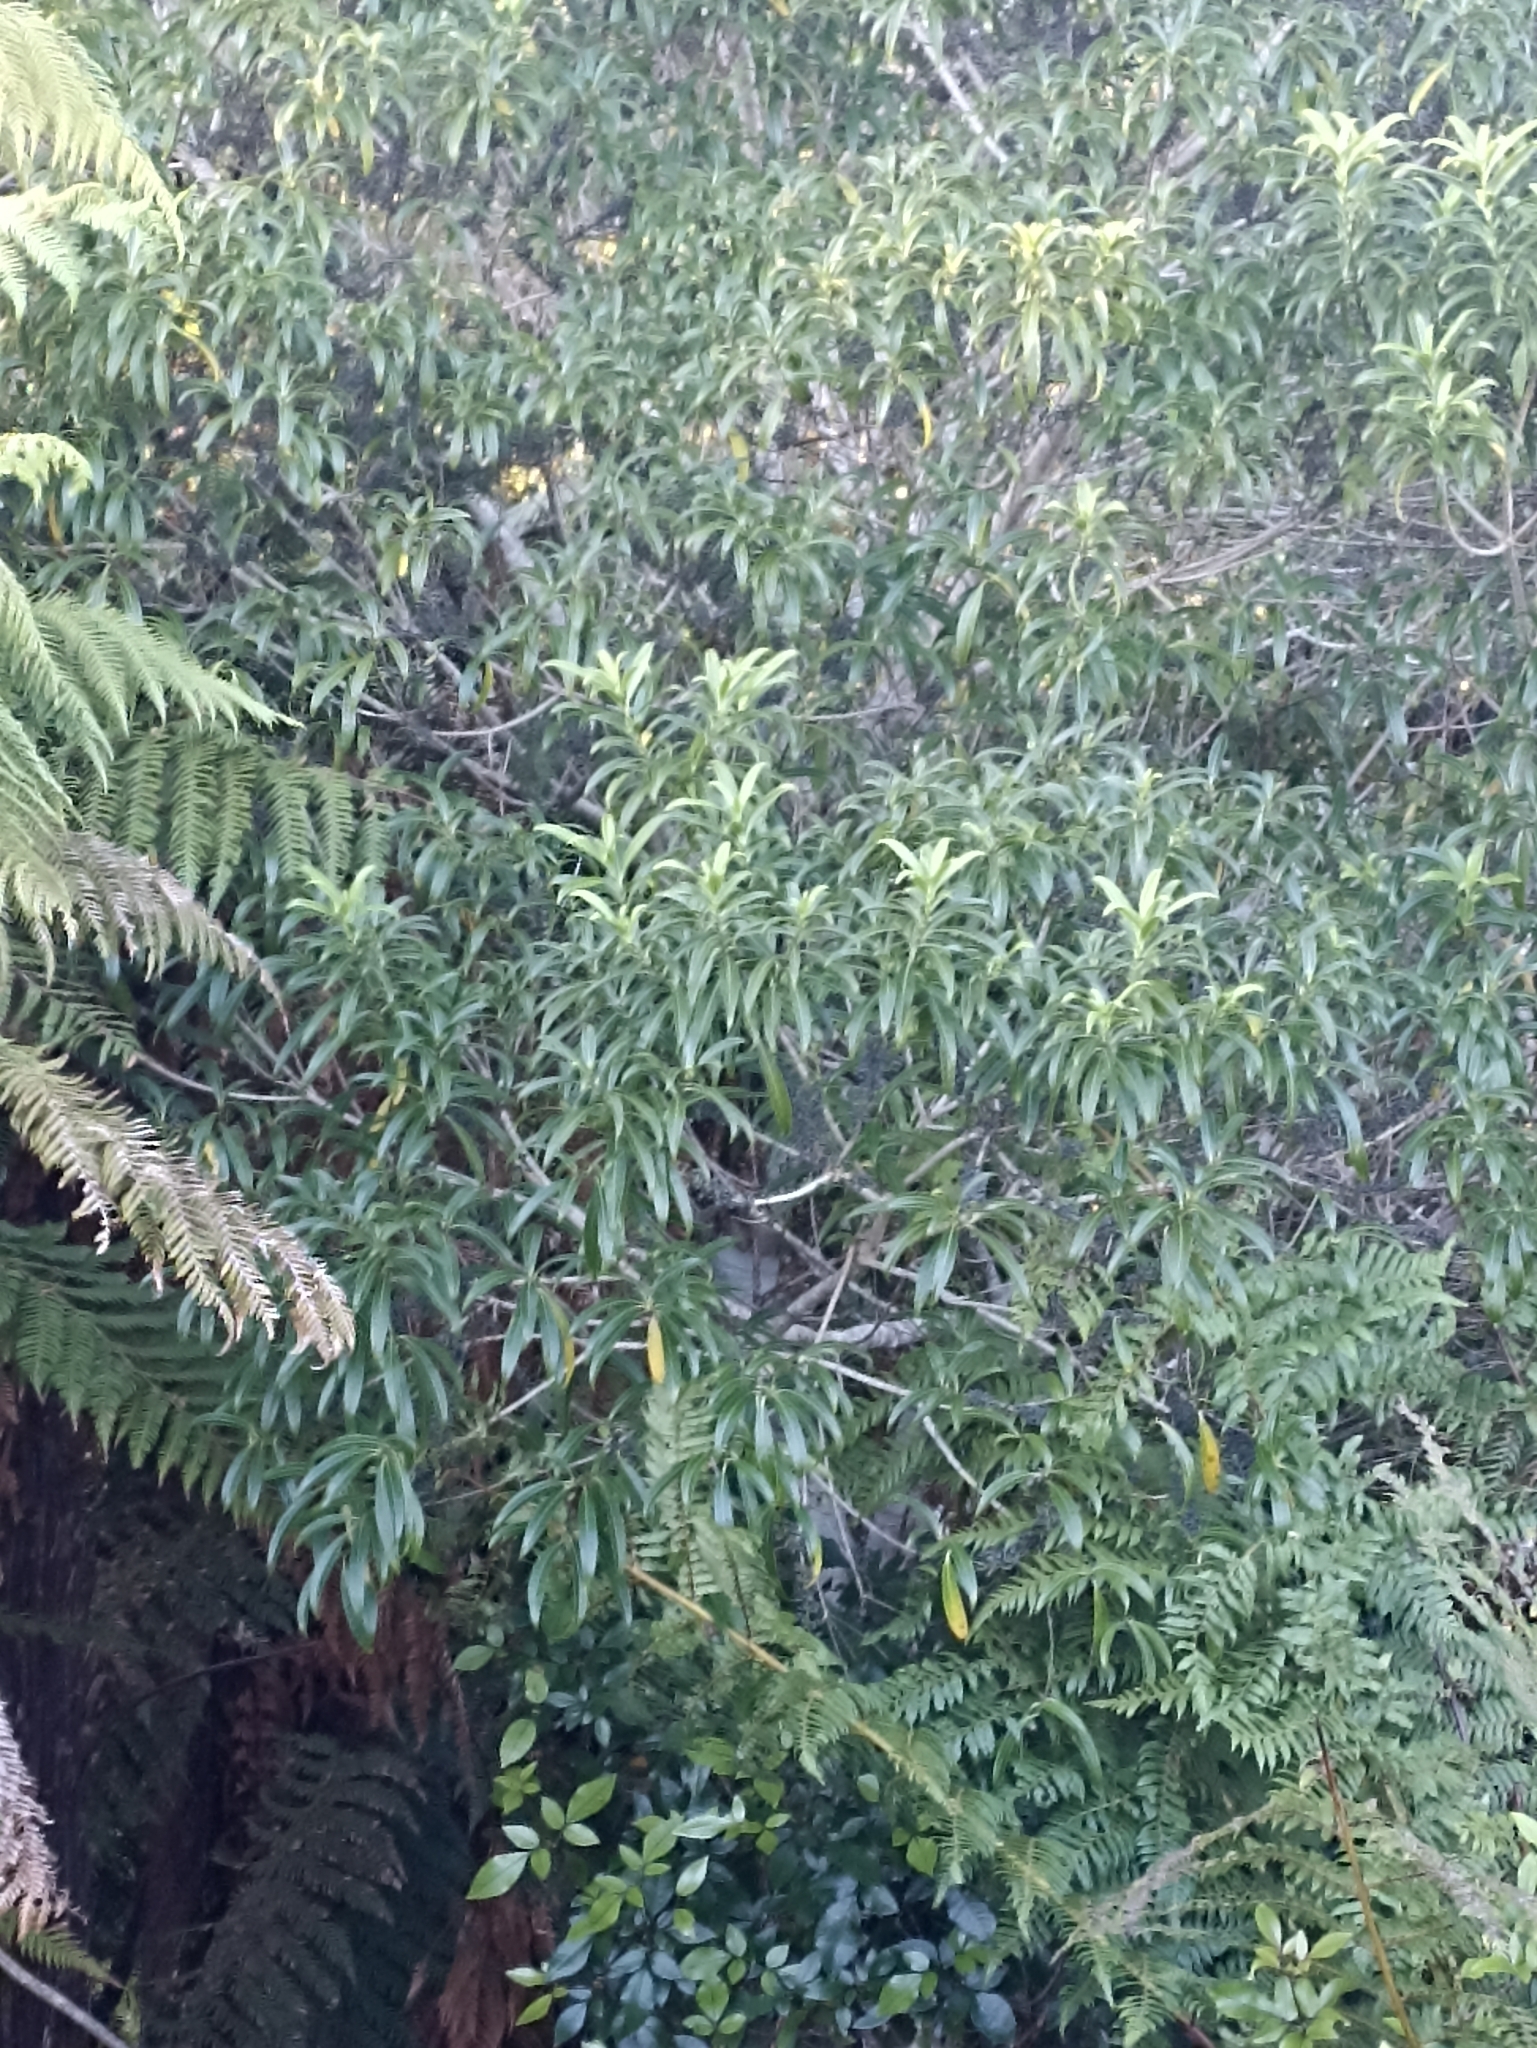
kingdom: Plantae
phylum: Tracheophyta
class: Magnoliopsida
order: Malpighiales
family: Violaceae
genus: Melicytus
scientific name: Melicytus lanceolatus
